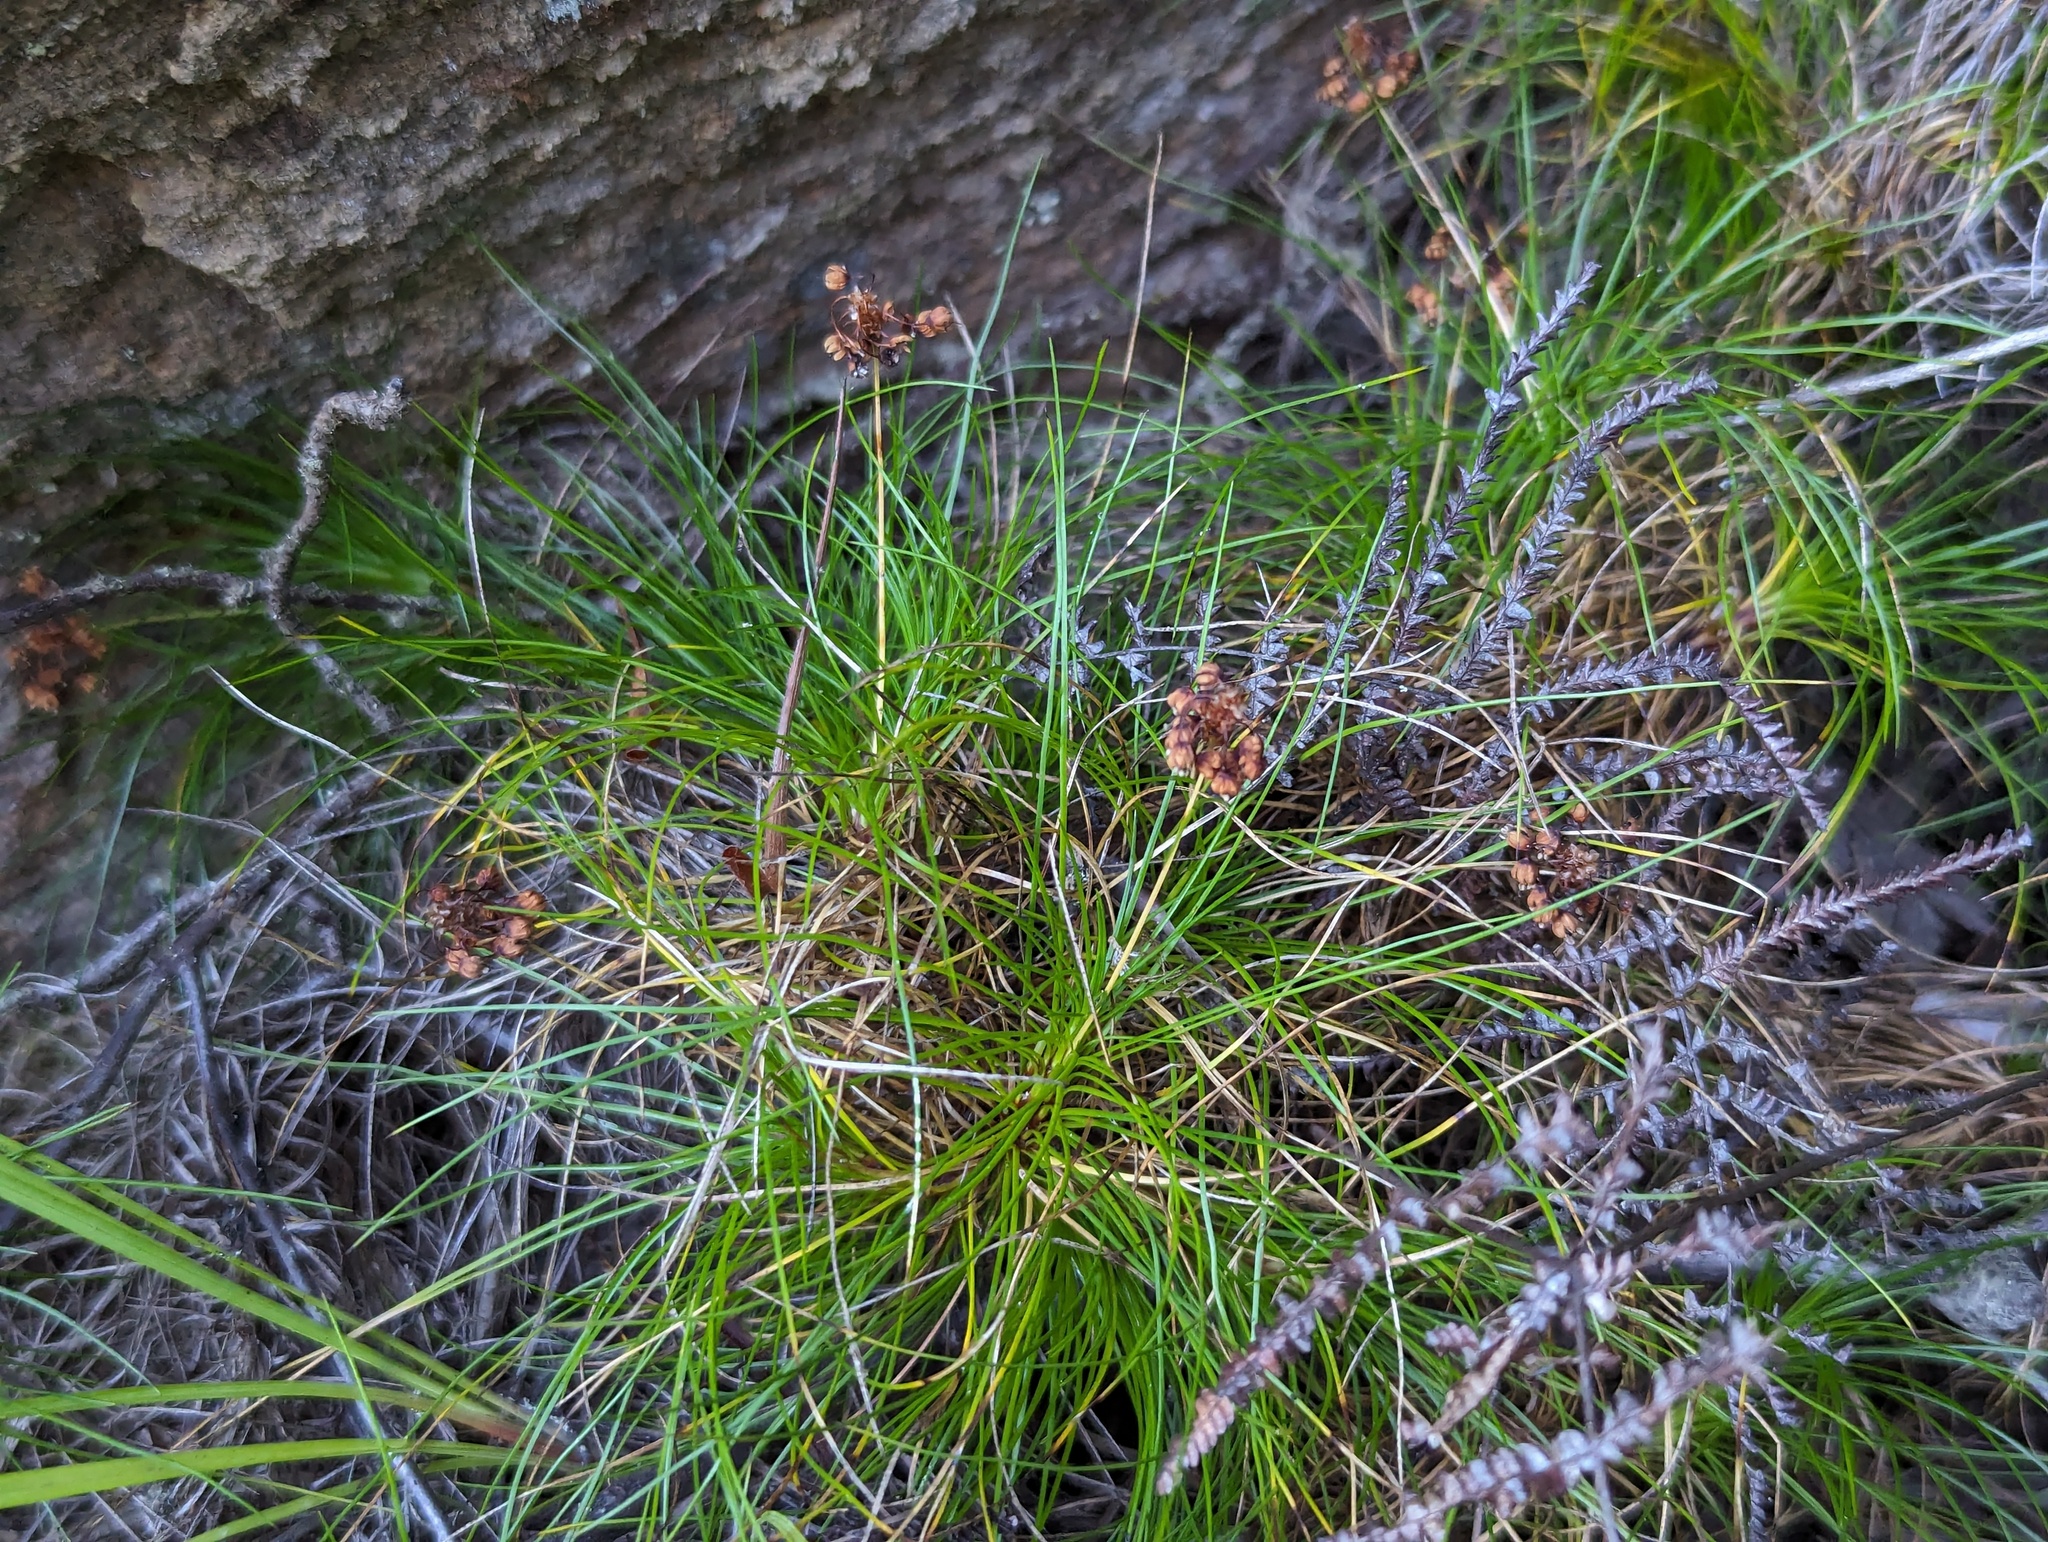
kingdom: Plantae
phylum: Tracheophyta
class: Liliopsida
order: Asparagales
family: Boryaceae
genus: Alania
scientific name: Alania cunninghamii
